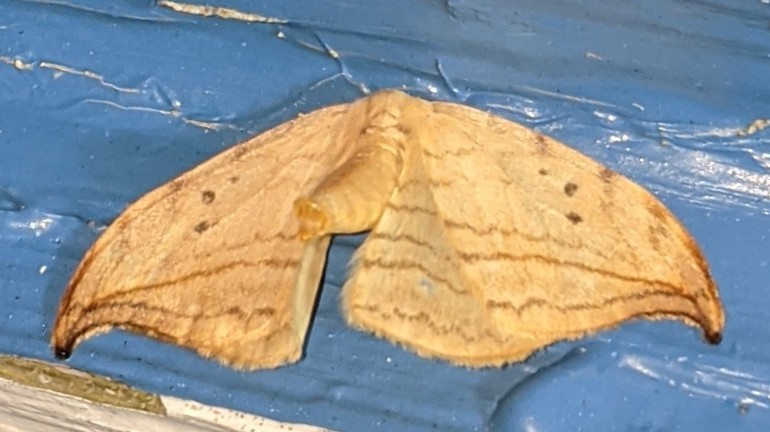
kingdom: Animalia
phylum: Arthropoda
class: Insecta
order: Lepidoptera
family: Drepanidae
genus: Drepana
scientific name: Drepana arcuata
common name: Arched hooktip moth
